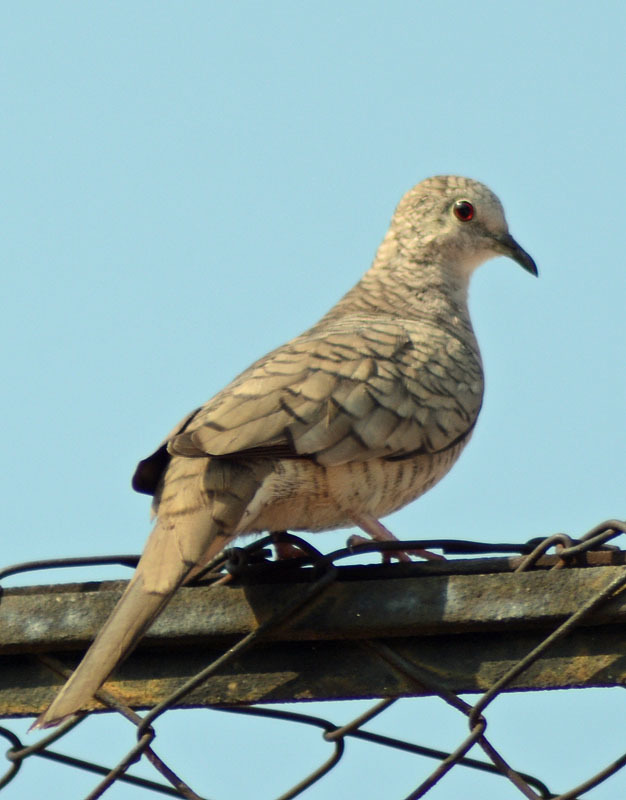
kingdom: Animalia
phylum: Chordata
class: Aves
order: Columbiformes
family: Columbidae
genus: Columbina
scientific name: Columbina inca
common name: Inca dove
